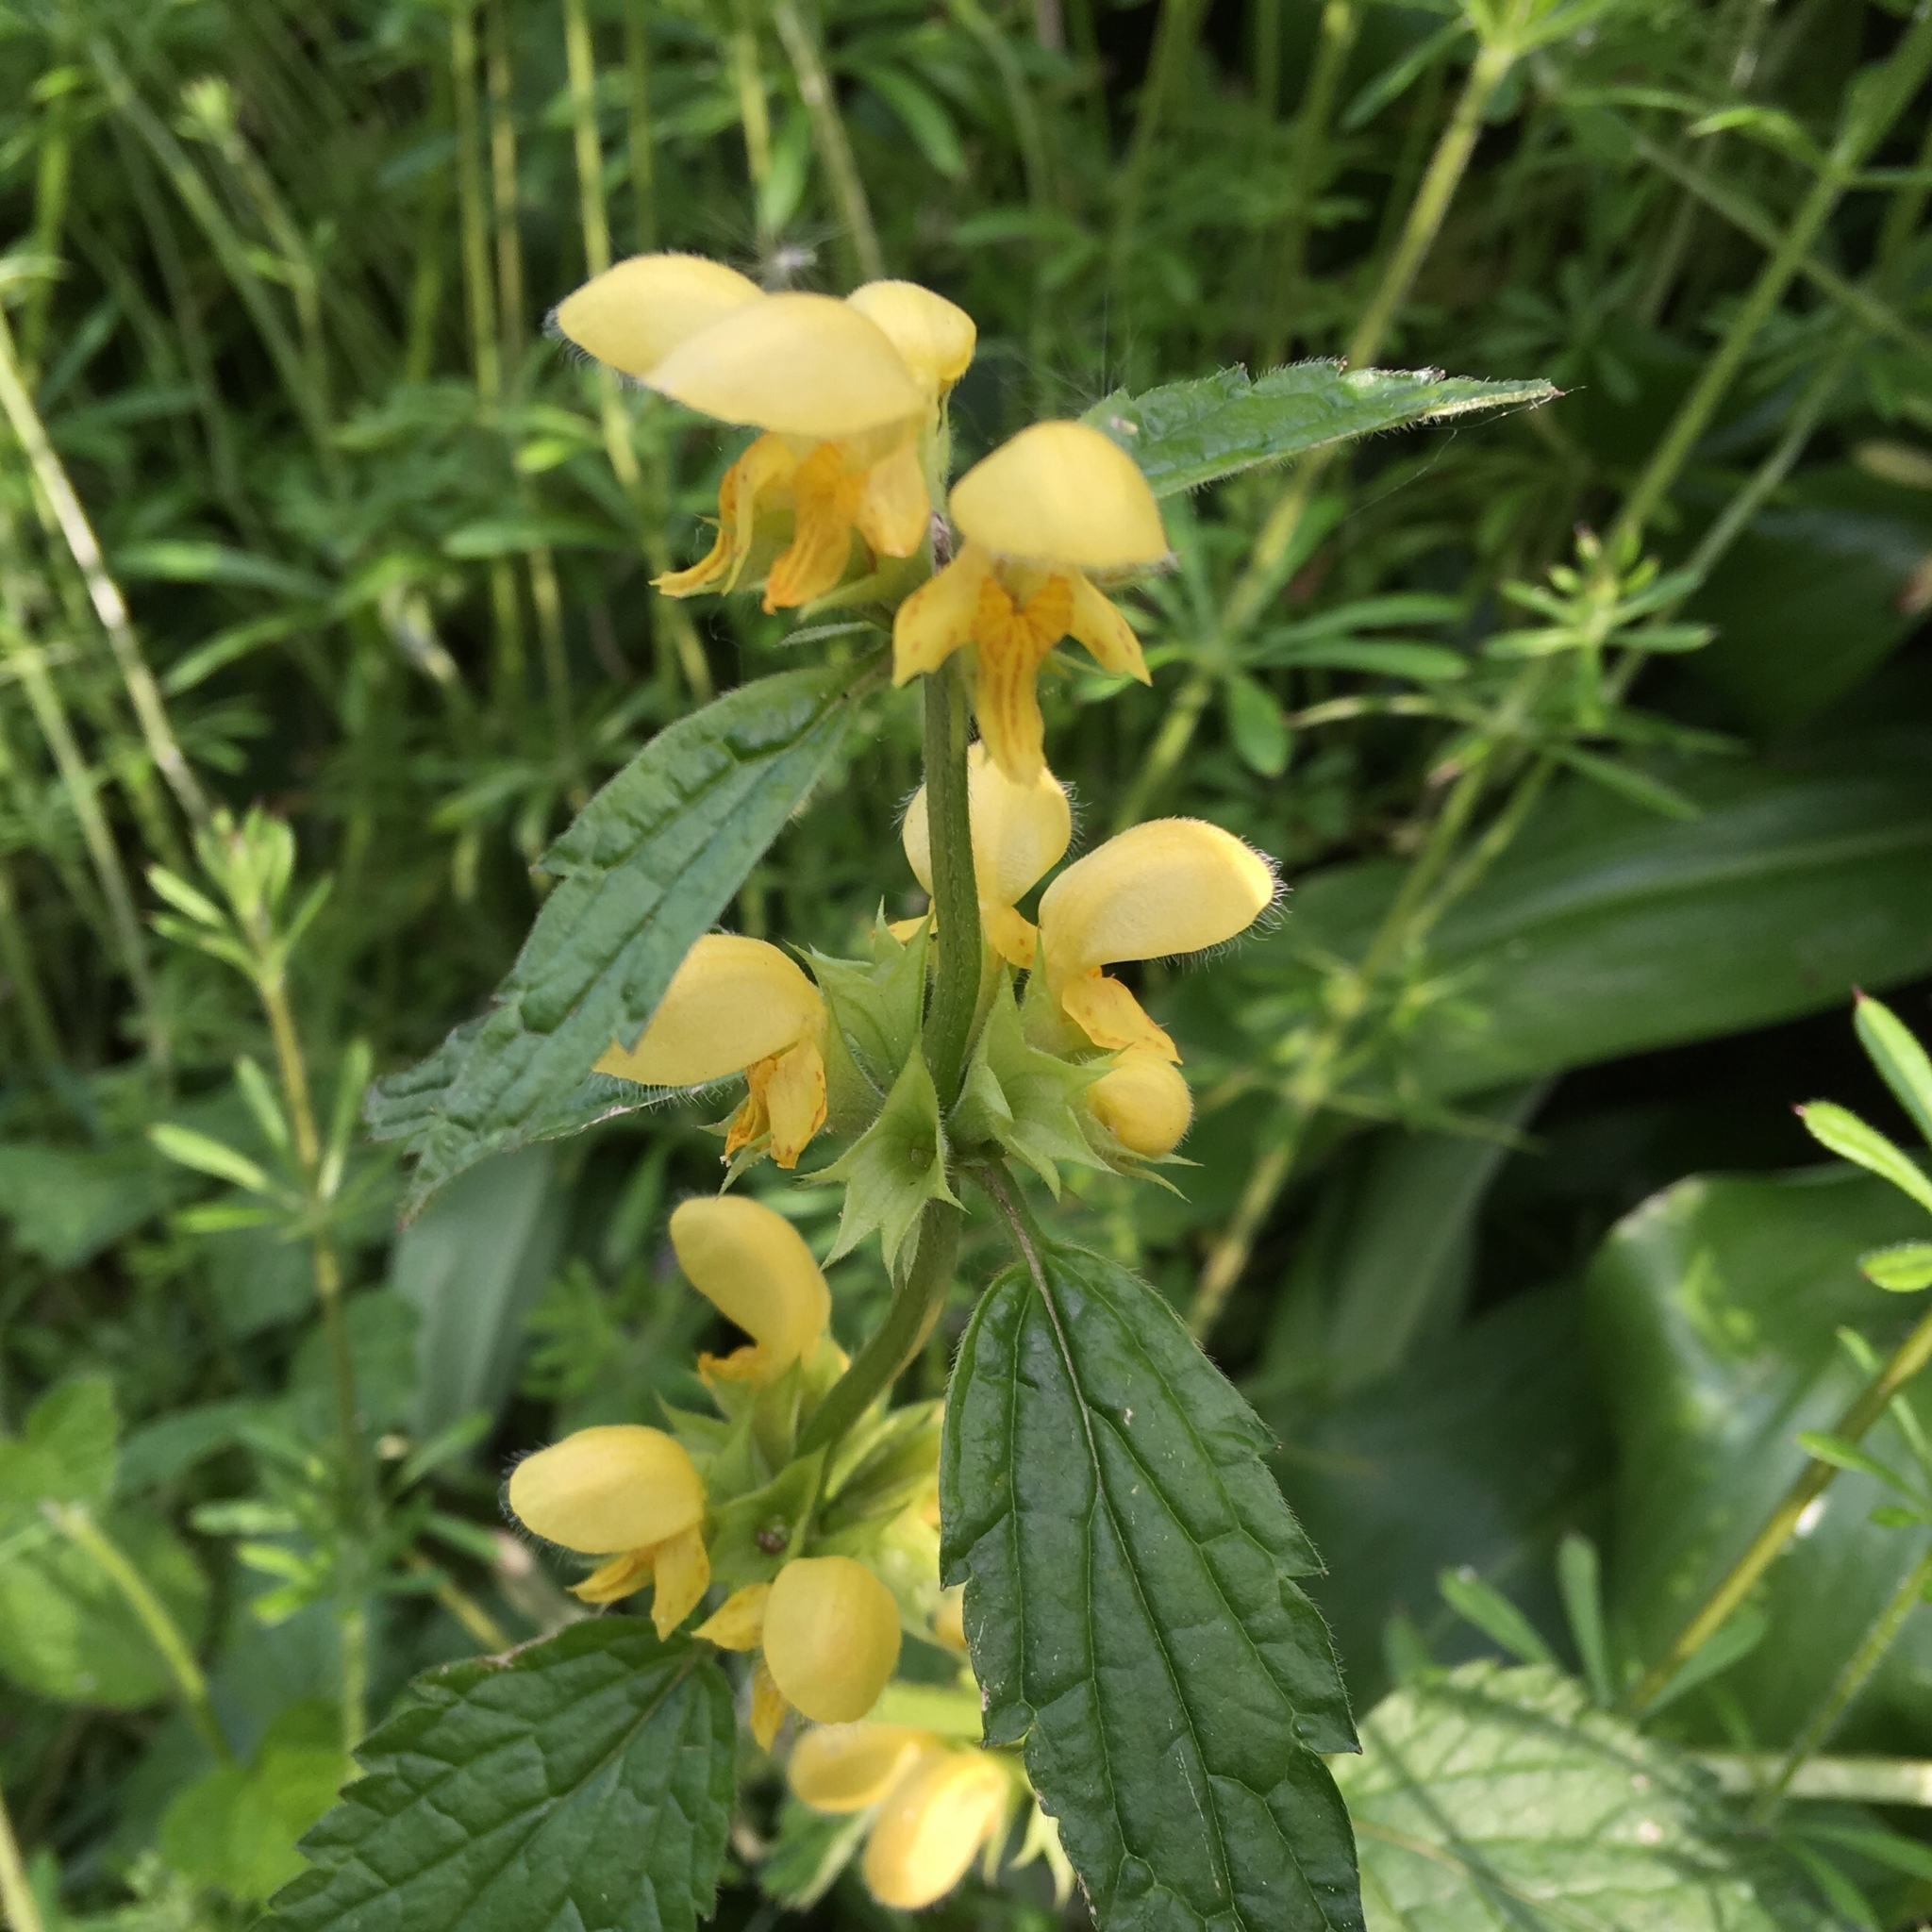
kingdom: Plantae
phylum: Tracheophyta
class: Magnoliopsida
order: Lamiales
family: Lamiaceae
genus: Lamium
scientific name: Lamium galeobdolon
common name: Yellow archangel
